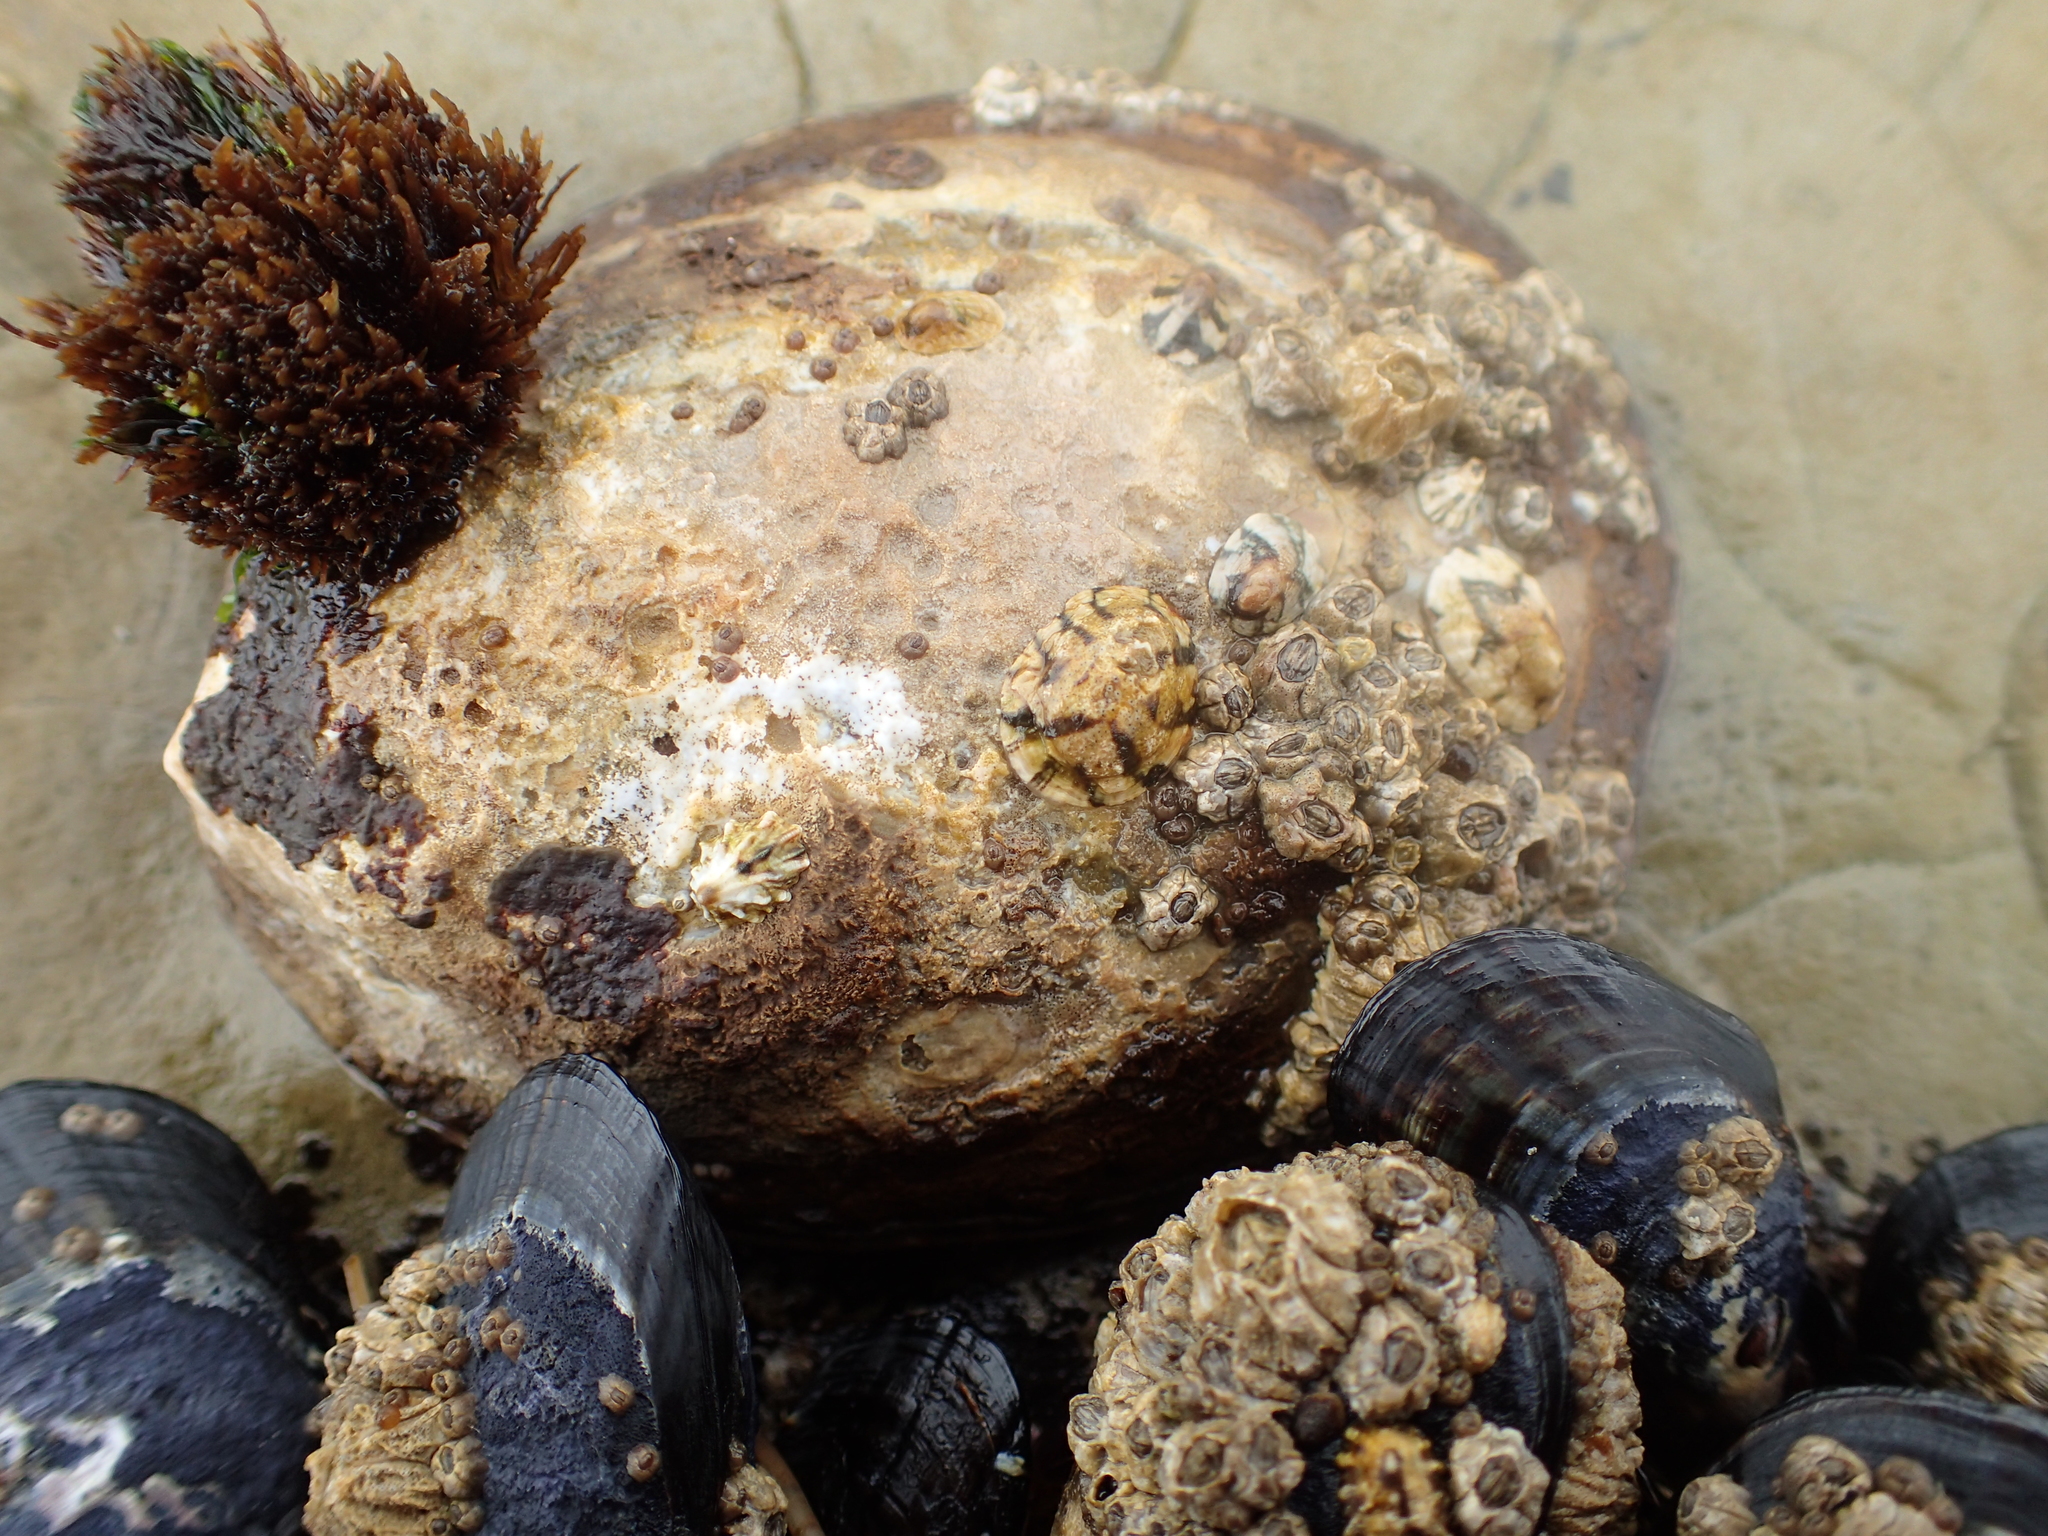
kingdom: Animalia
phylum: Mollusca
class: Gastropoda
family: Lottiidae
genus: Lottia
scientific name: Lottia gigantea
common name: Owl limpet
